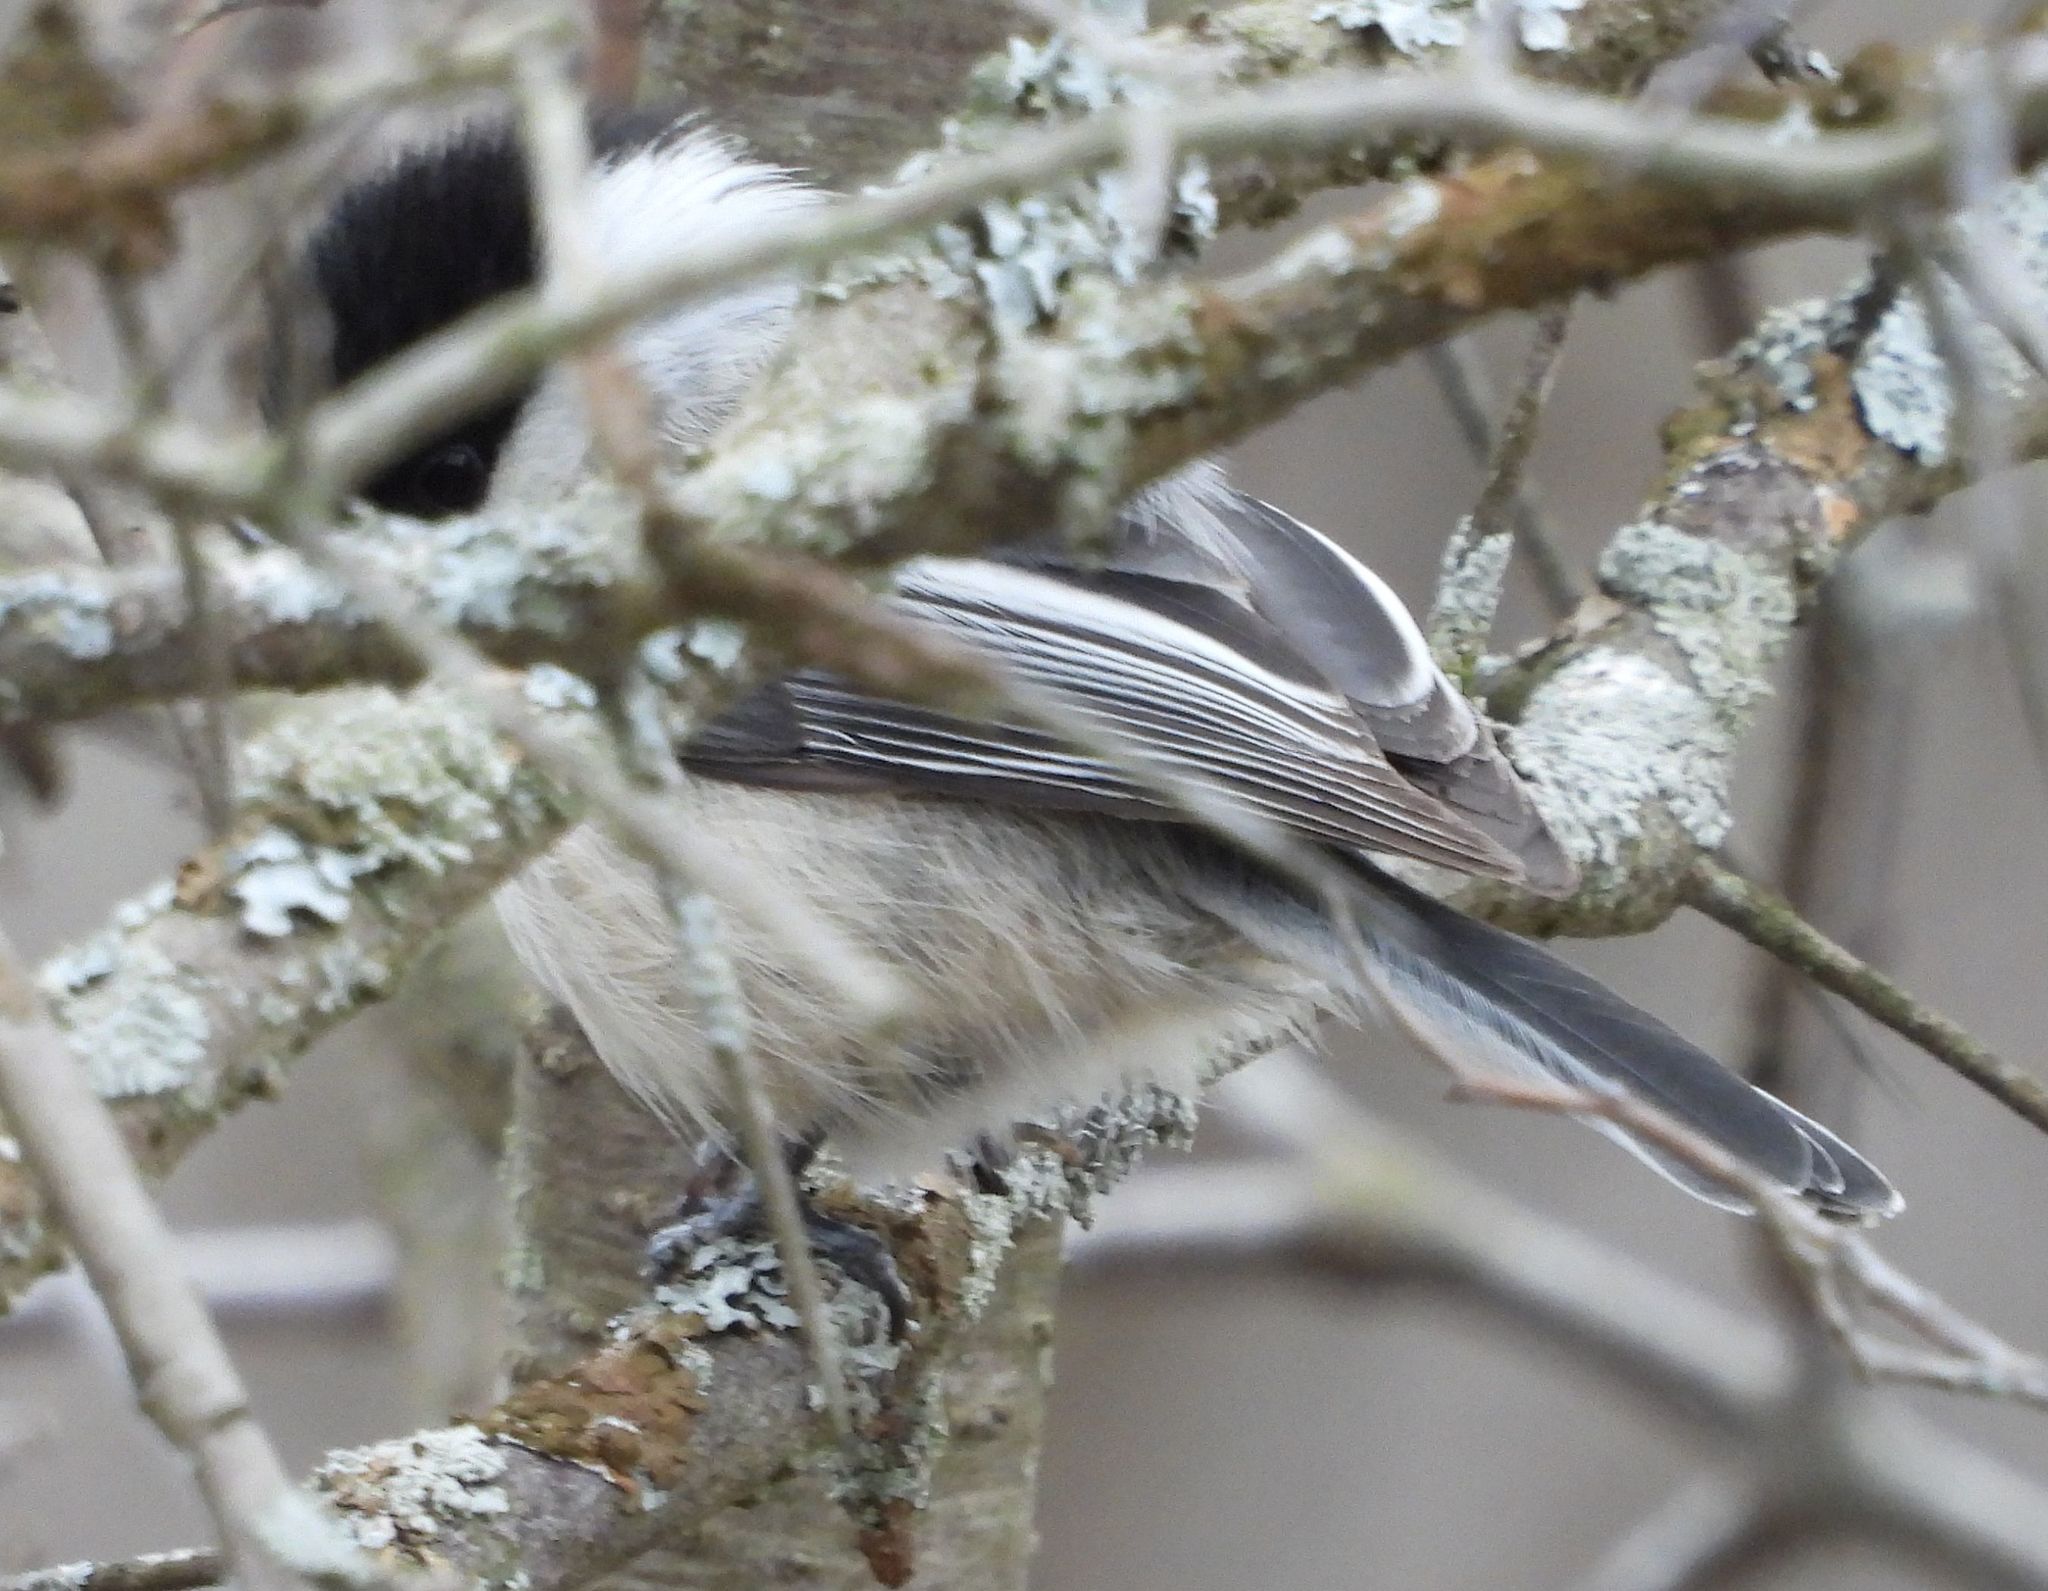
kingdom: Animalia
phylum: Chordata
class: Aves
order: Passeriformes
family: Paridae
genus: Poecile
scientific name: Poecile atricapillus
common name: Black-capped chickadee
